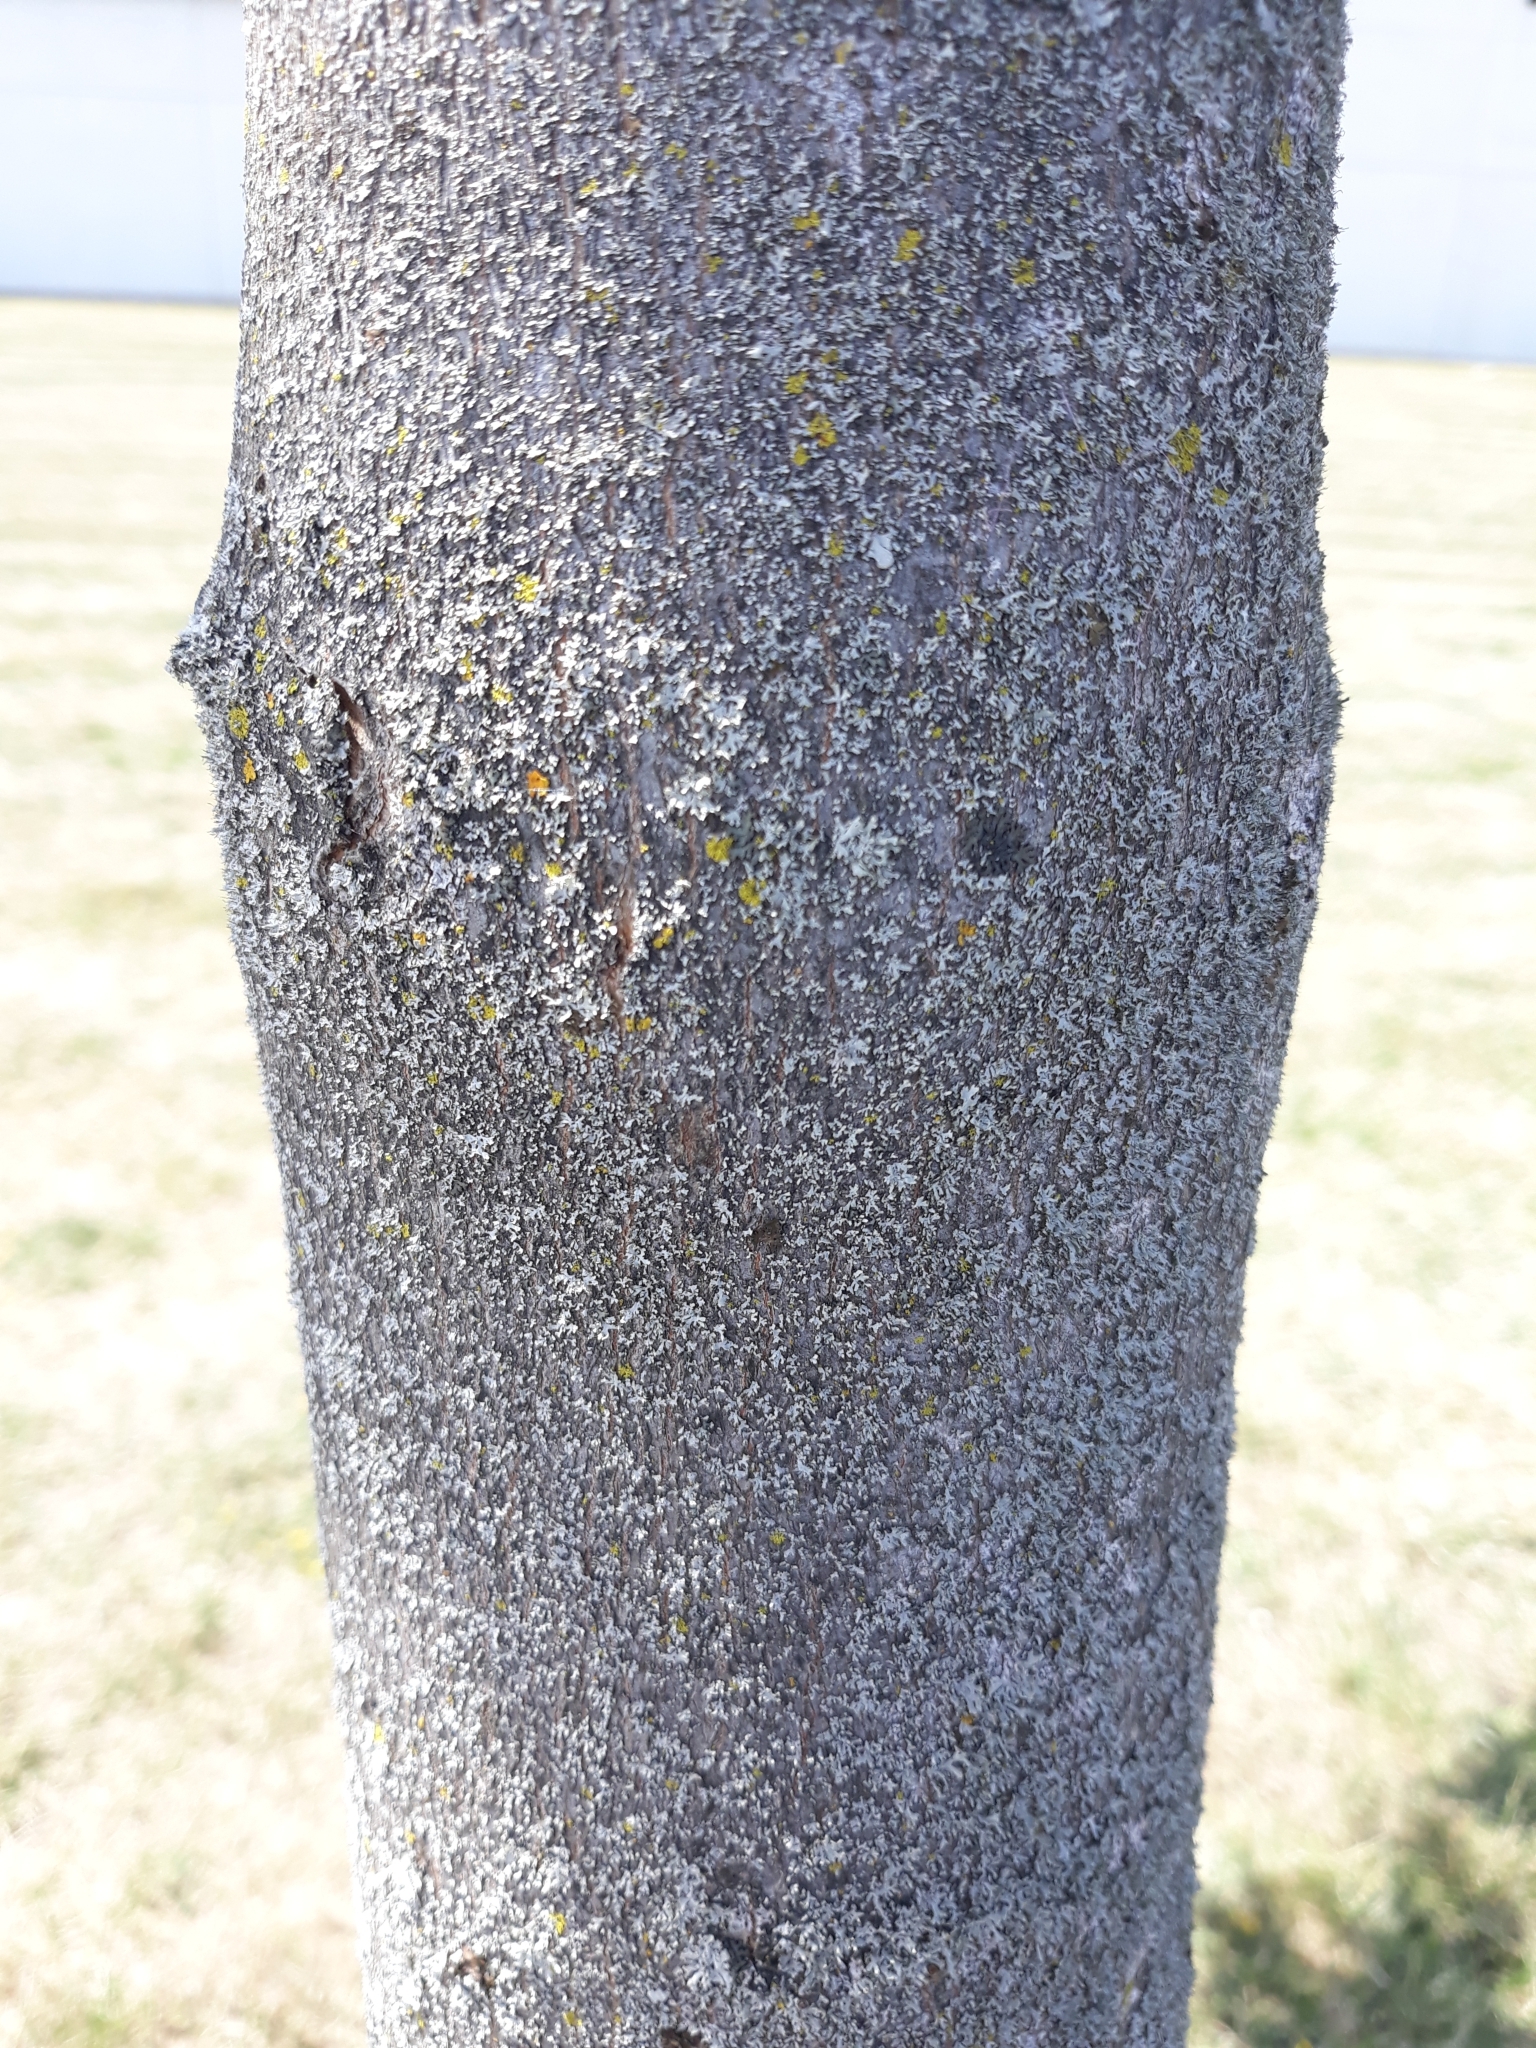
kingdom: Plantae
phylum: Tracheophyta
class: Magnoliopsida
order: Sapindales
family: Sapindaceae
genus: Acer
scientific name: Acer pseudoplatanus
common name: Sycamore
